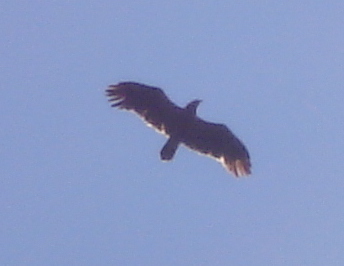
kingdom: Animalia
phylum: Chordata
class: Aves
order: Accipitriformes
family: Accipitridae
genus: Aquila
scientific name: Aquila pomarina
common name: Lesser spotted eagle
